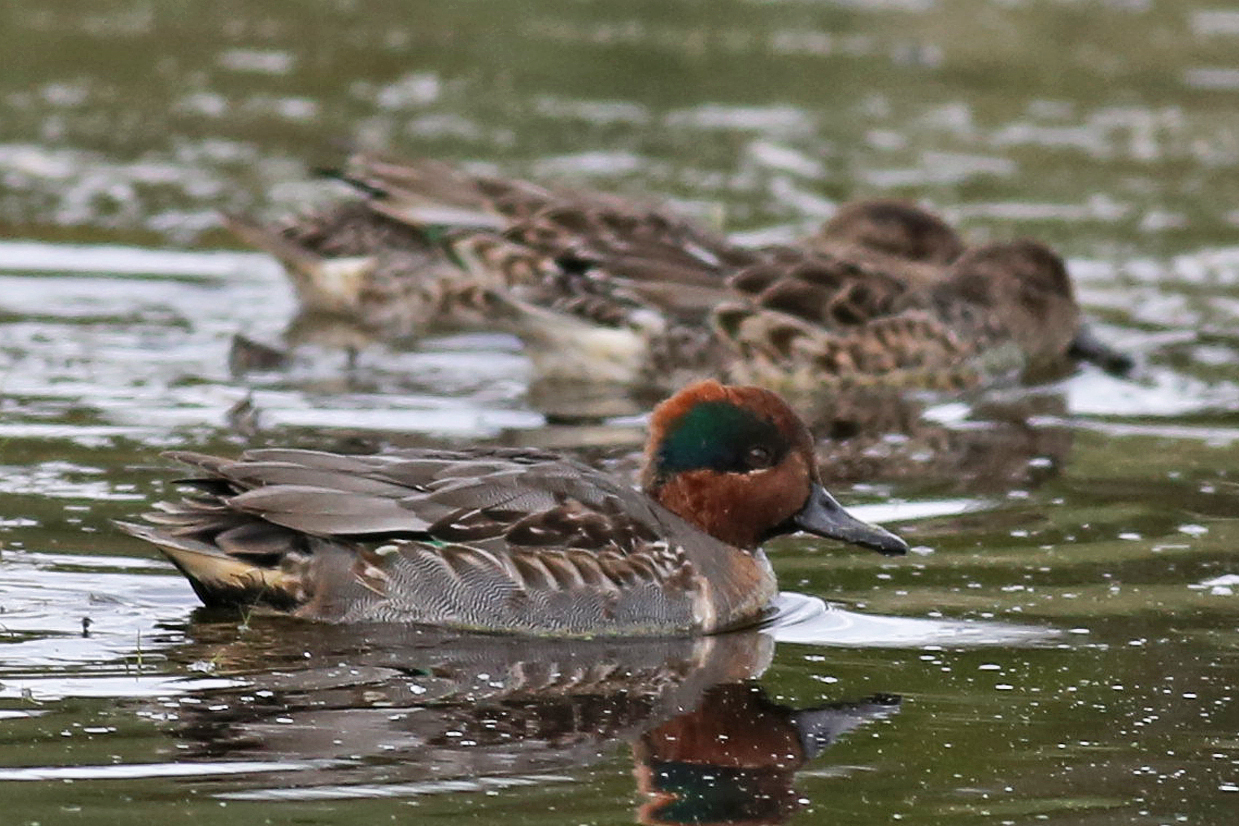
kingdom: Animalia
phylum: Chordata
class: Aves
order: Anseriformes
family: Anatidae
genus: Anas
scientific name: Anas crecca
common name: Eurasian teal
